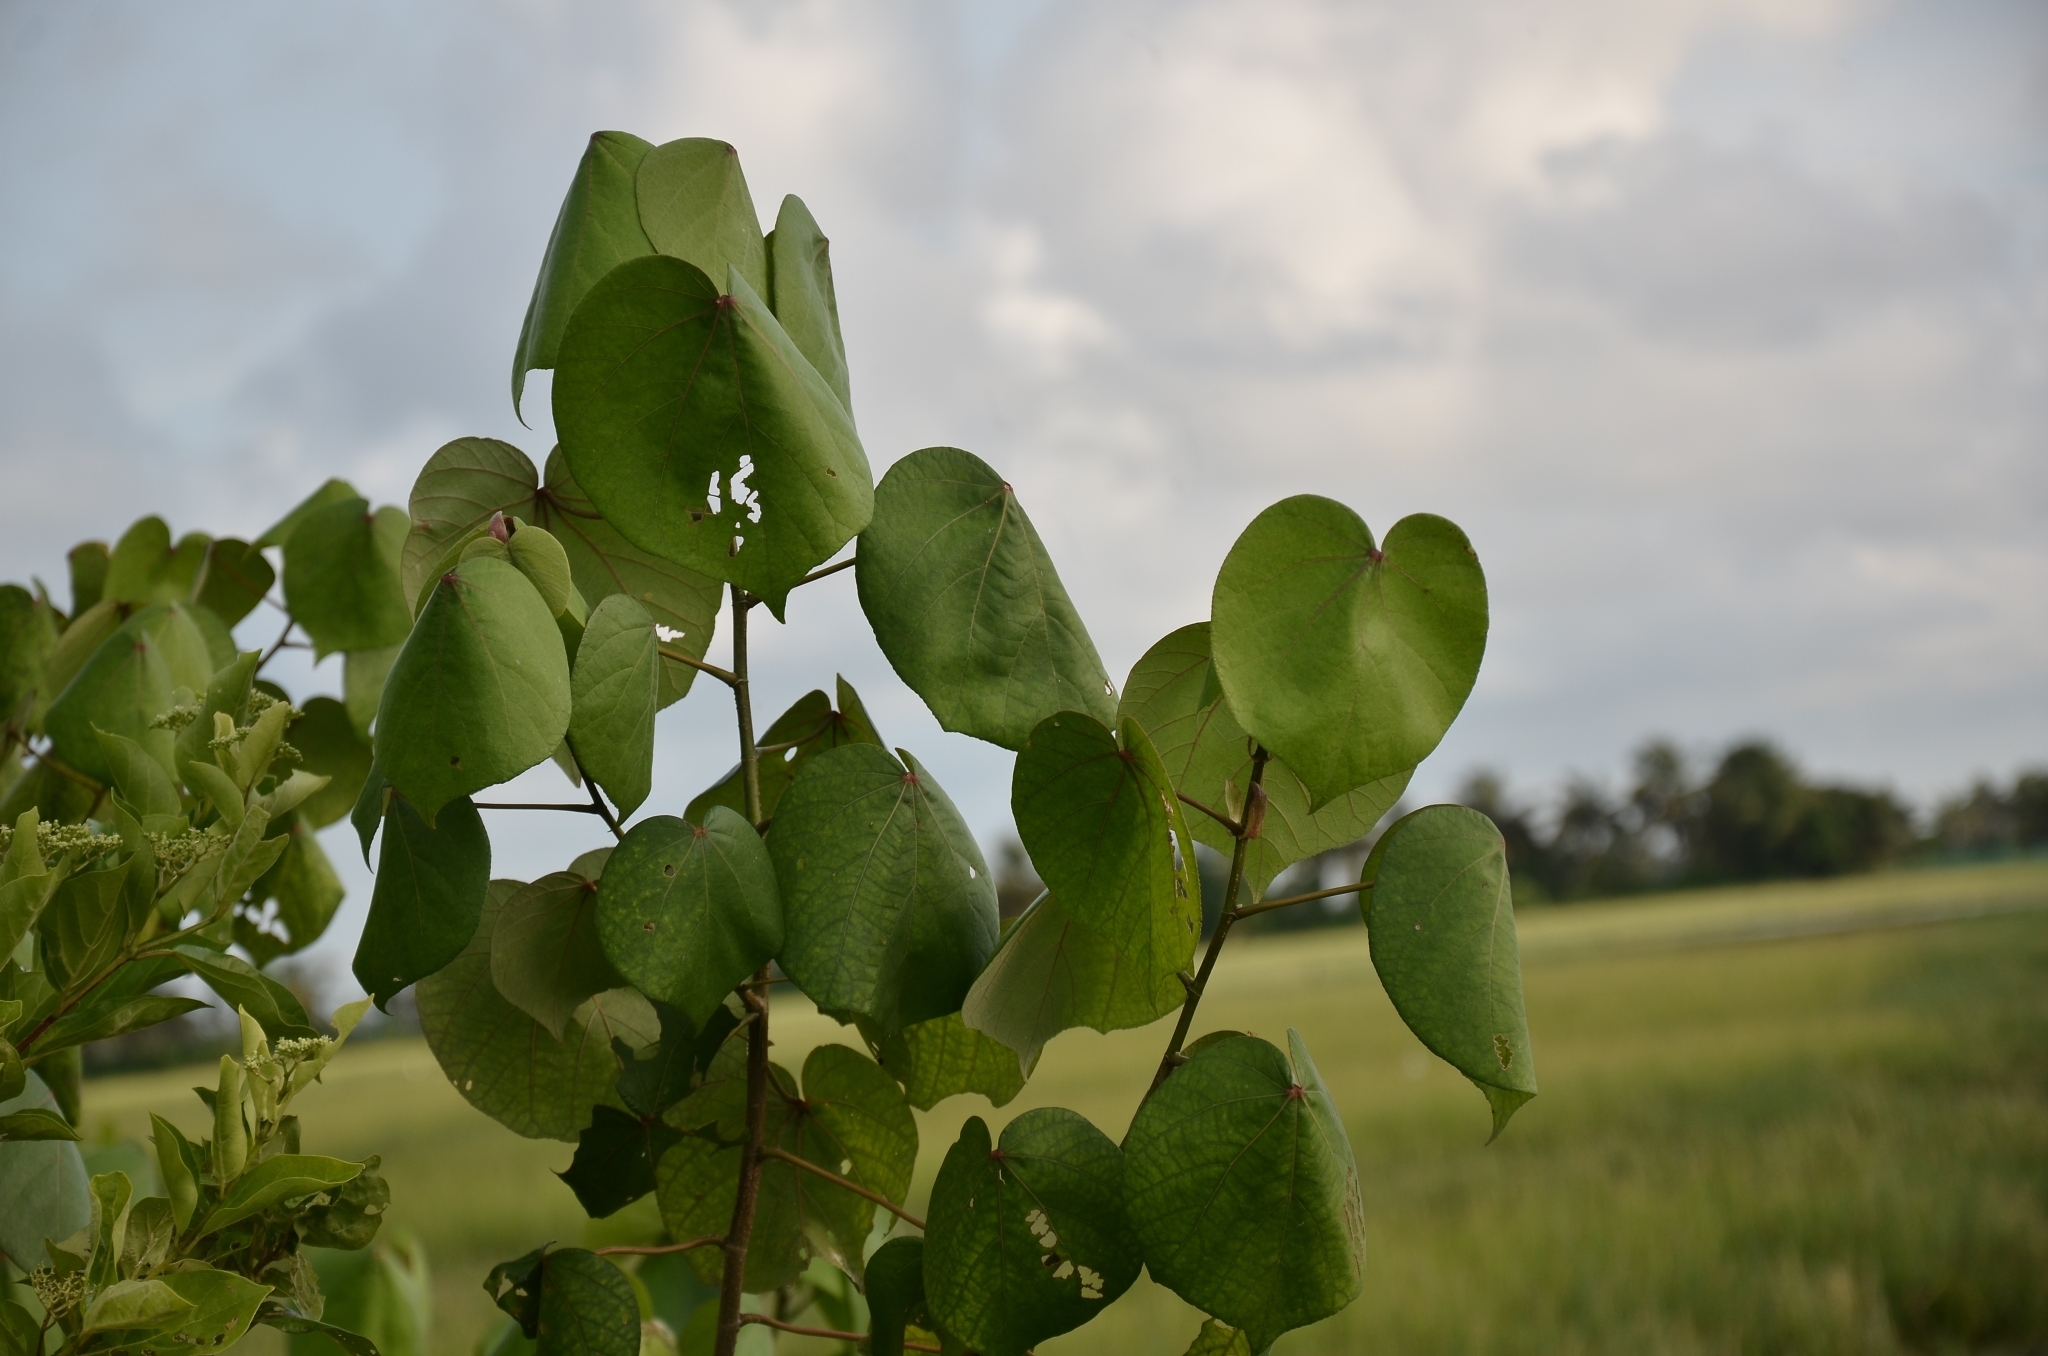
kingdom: Plantae
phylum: Tracheophyta
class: Magnoliopsida
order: Malvales
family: Malvaceae
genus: Talipariti
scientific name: Talipariti tiliaceum
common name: Sea hibiscus
